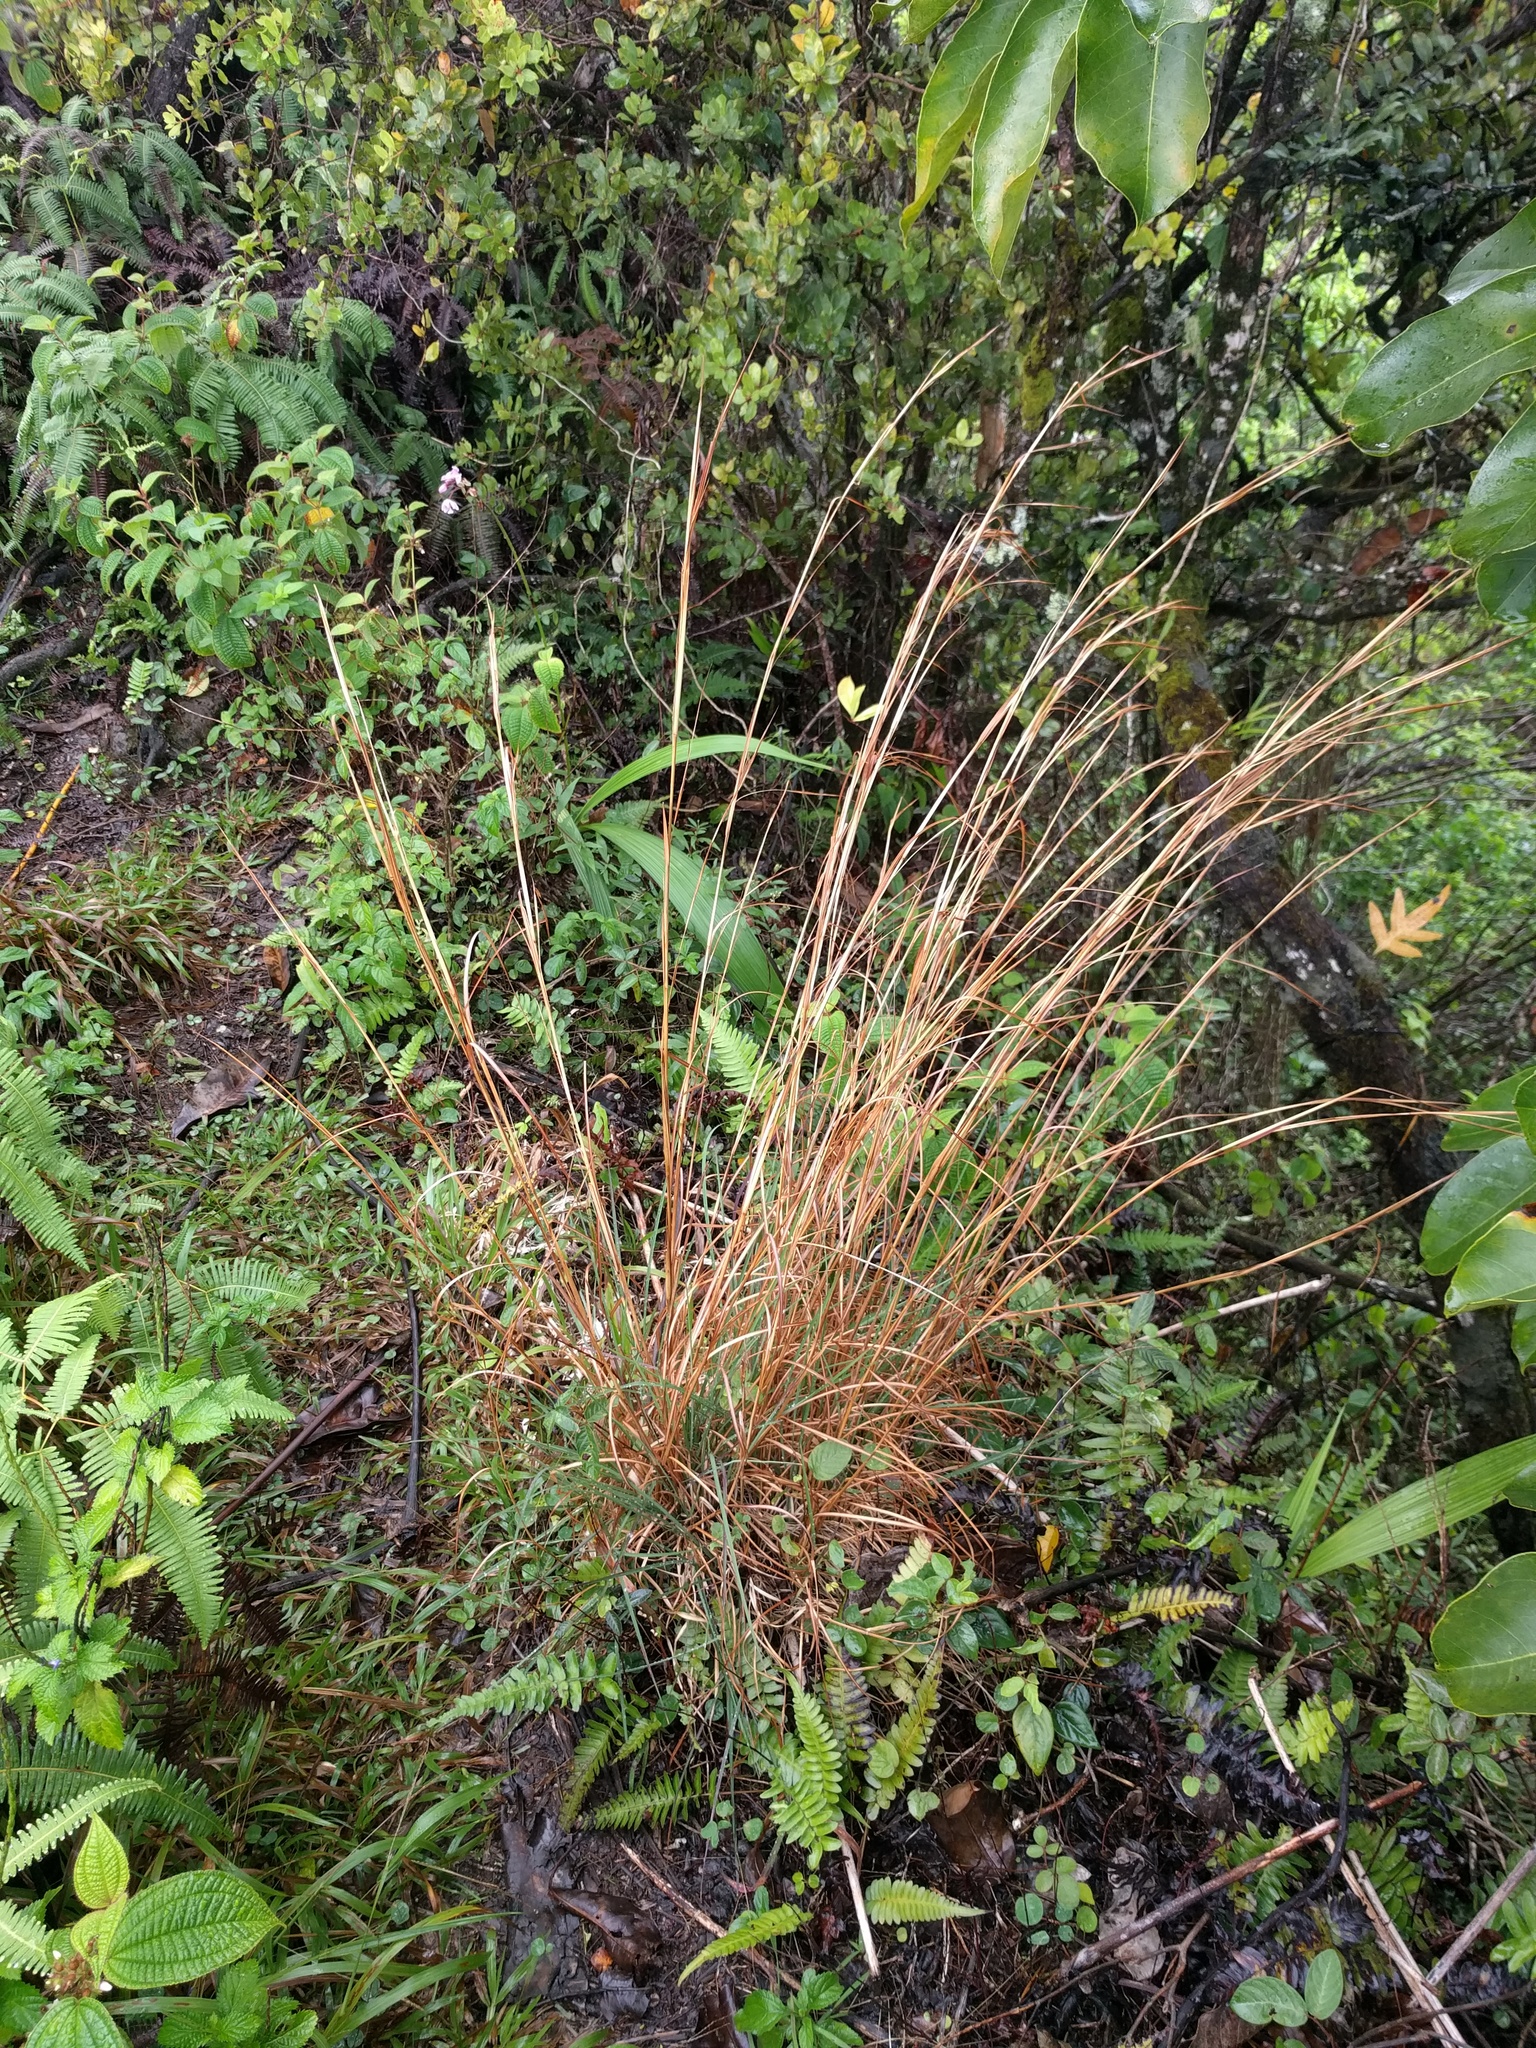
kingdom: Plantae
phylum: Tracheophyta
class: Liliopsida
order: Poales
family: Poaceae
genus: Andropogon
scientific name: Andropogon virginicus
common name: Broomsedge bluestem
